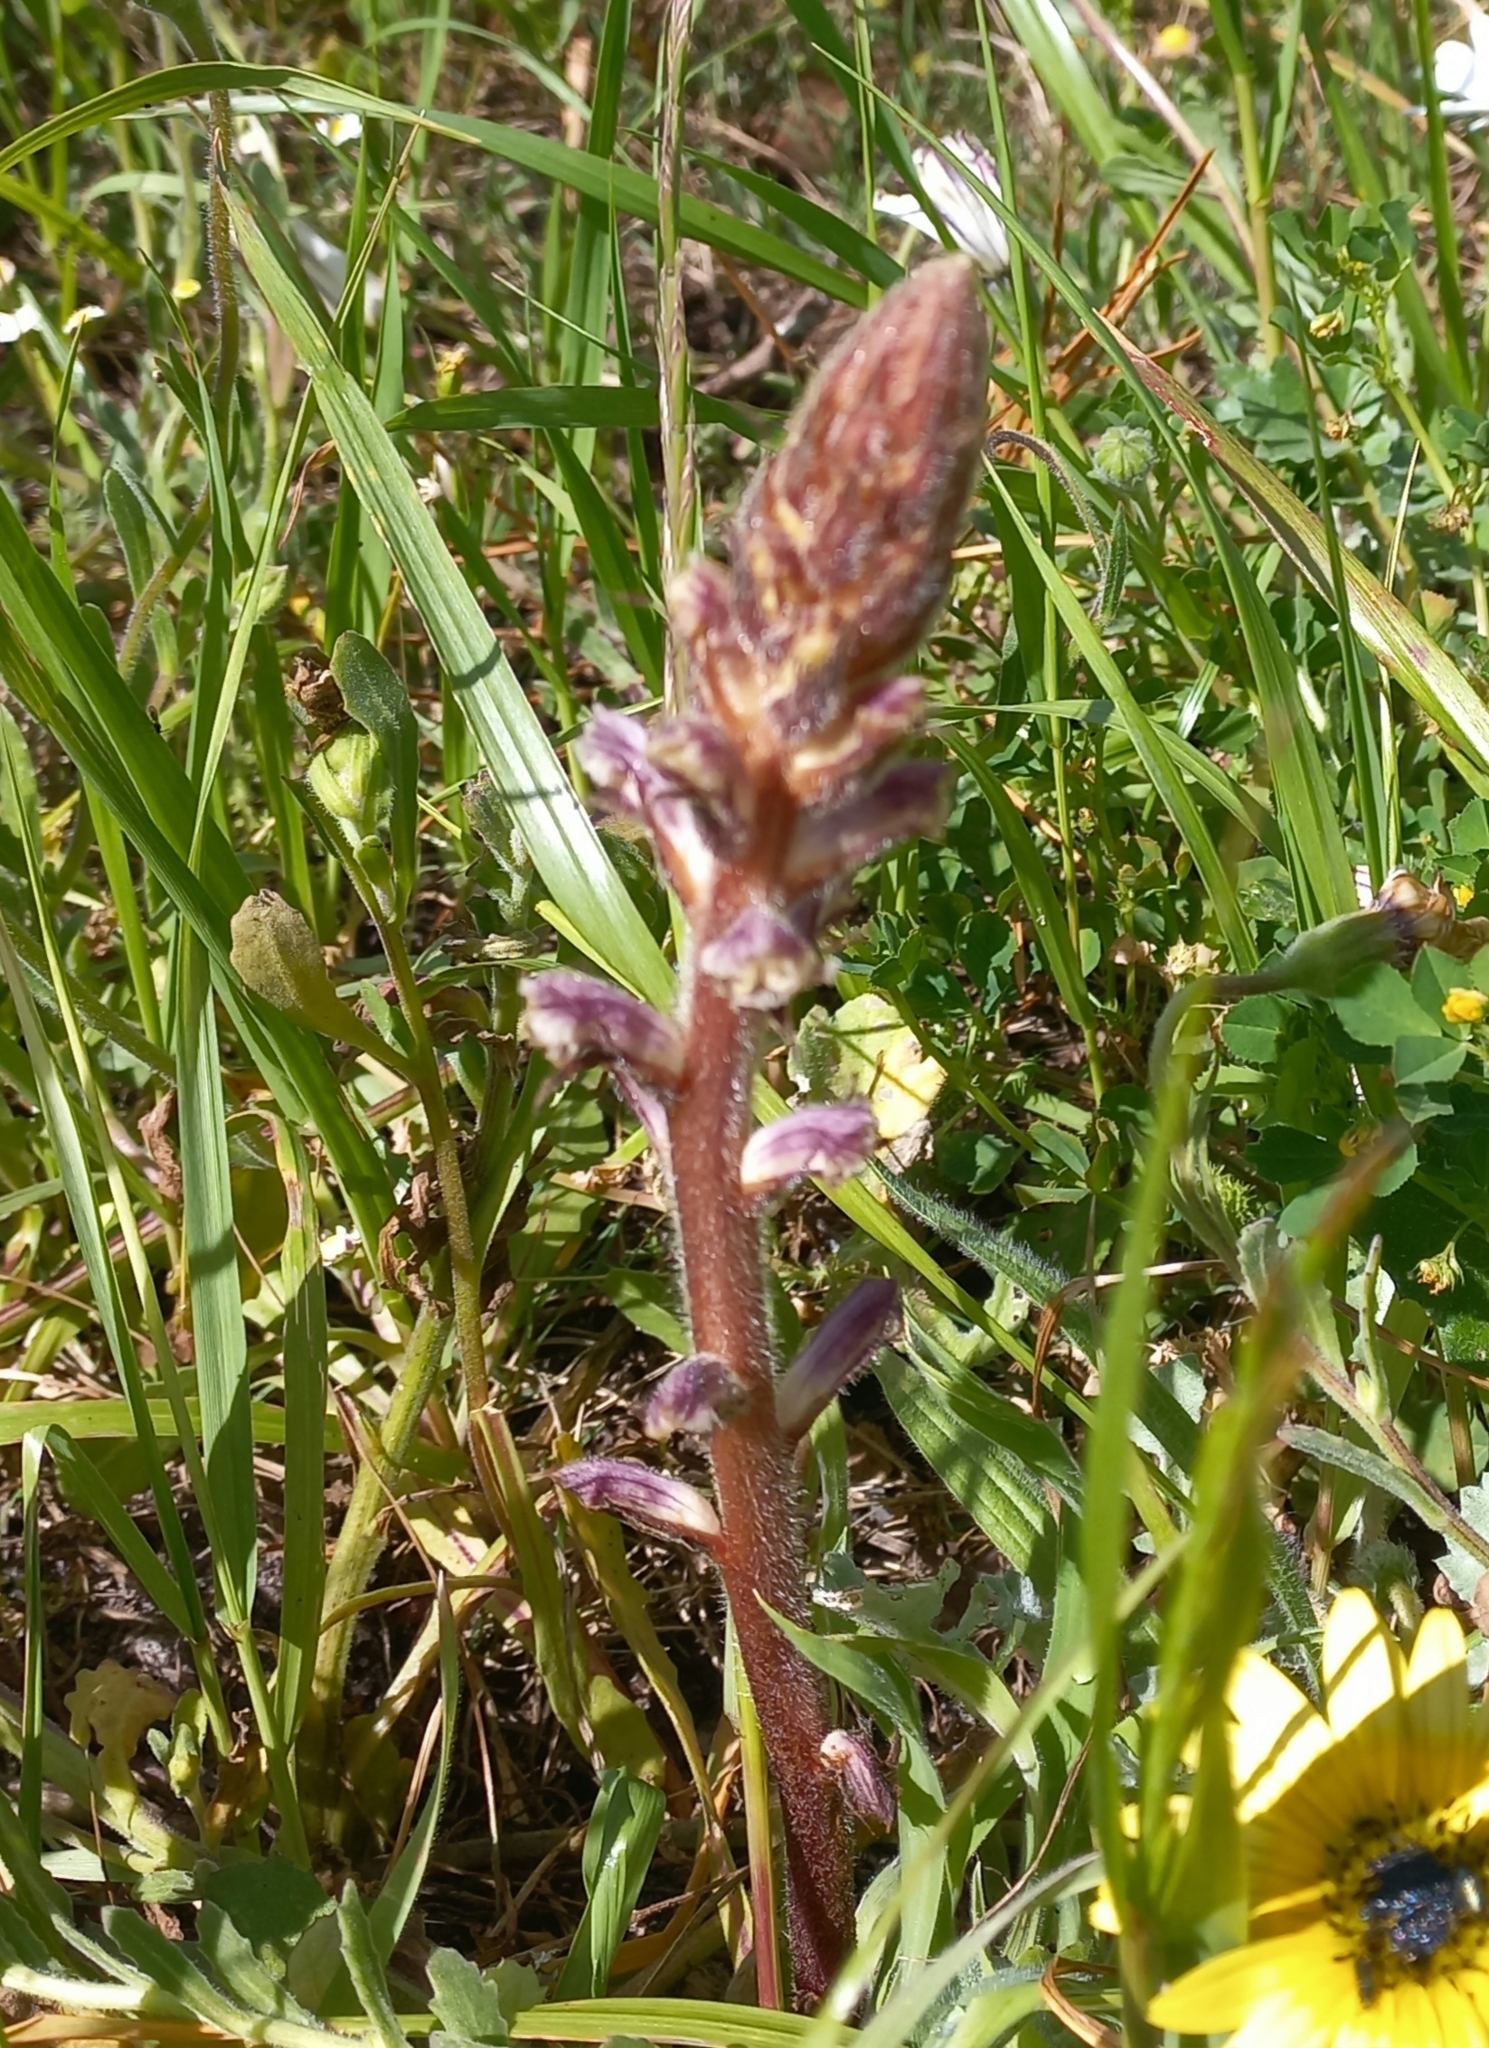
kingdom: Plantae
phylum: Tracheophyta
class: Magnoliopsida
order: Lamiales
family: Orobanchaceae
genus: Orobanche
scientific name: Orobanche minor
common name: Common broomrape
